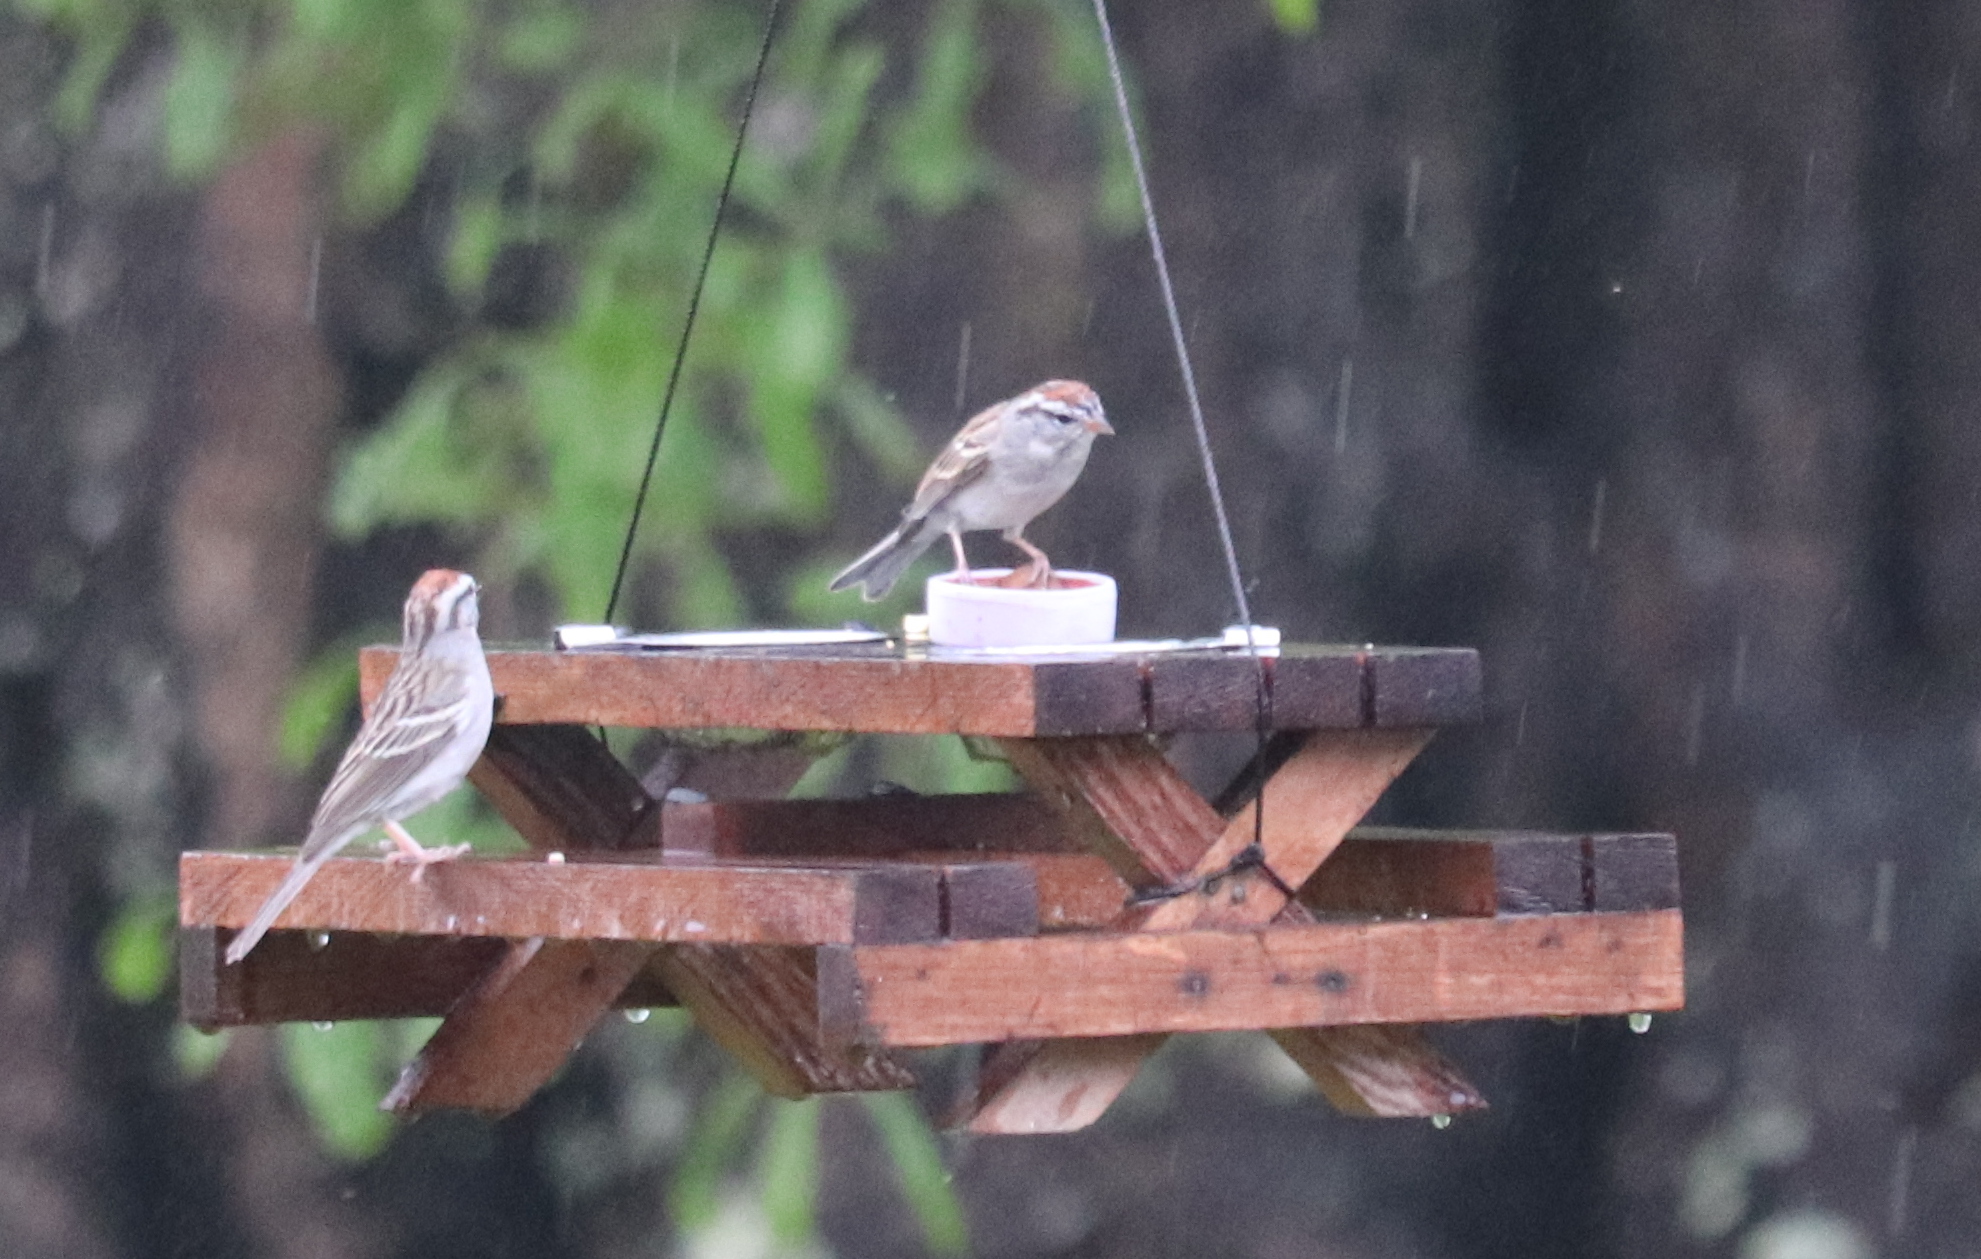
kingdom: Animalia
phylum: Chordata
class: Aves
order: Passeriformes
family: Passerellidae
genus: Spizella
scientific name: Spizella passerina
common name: Chipping sparrow
